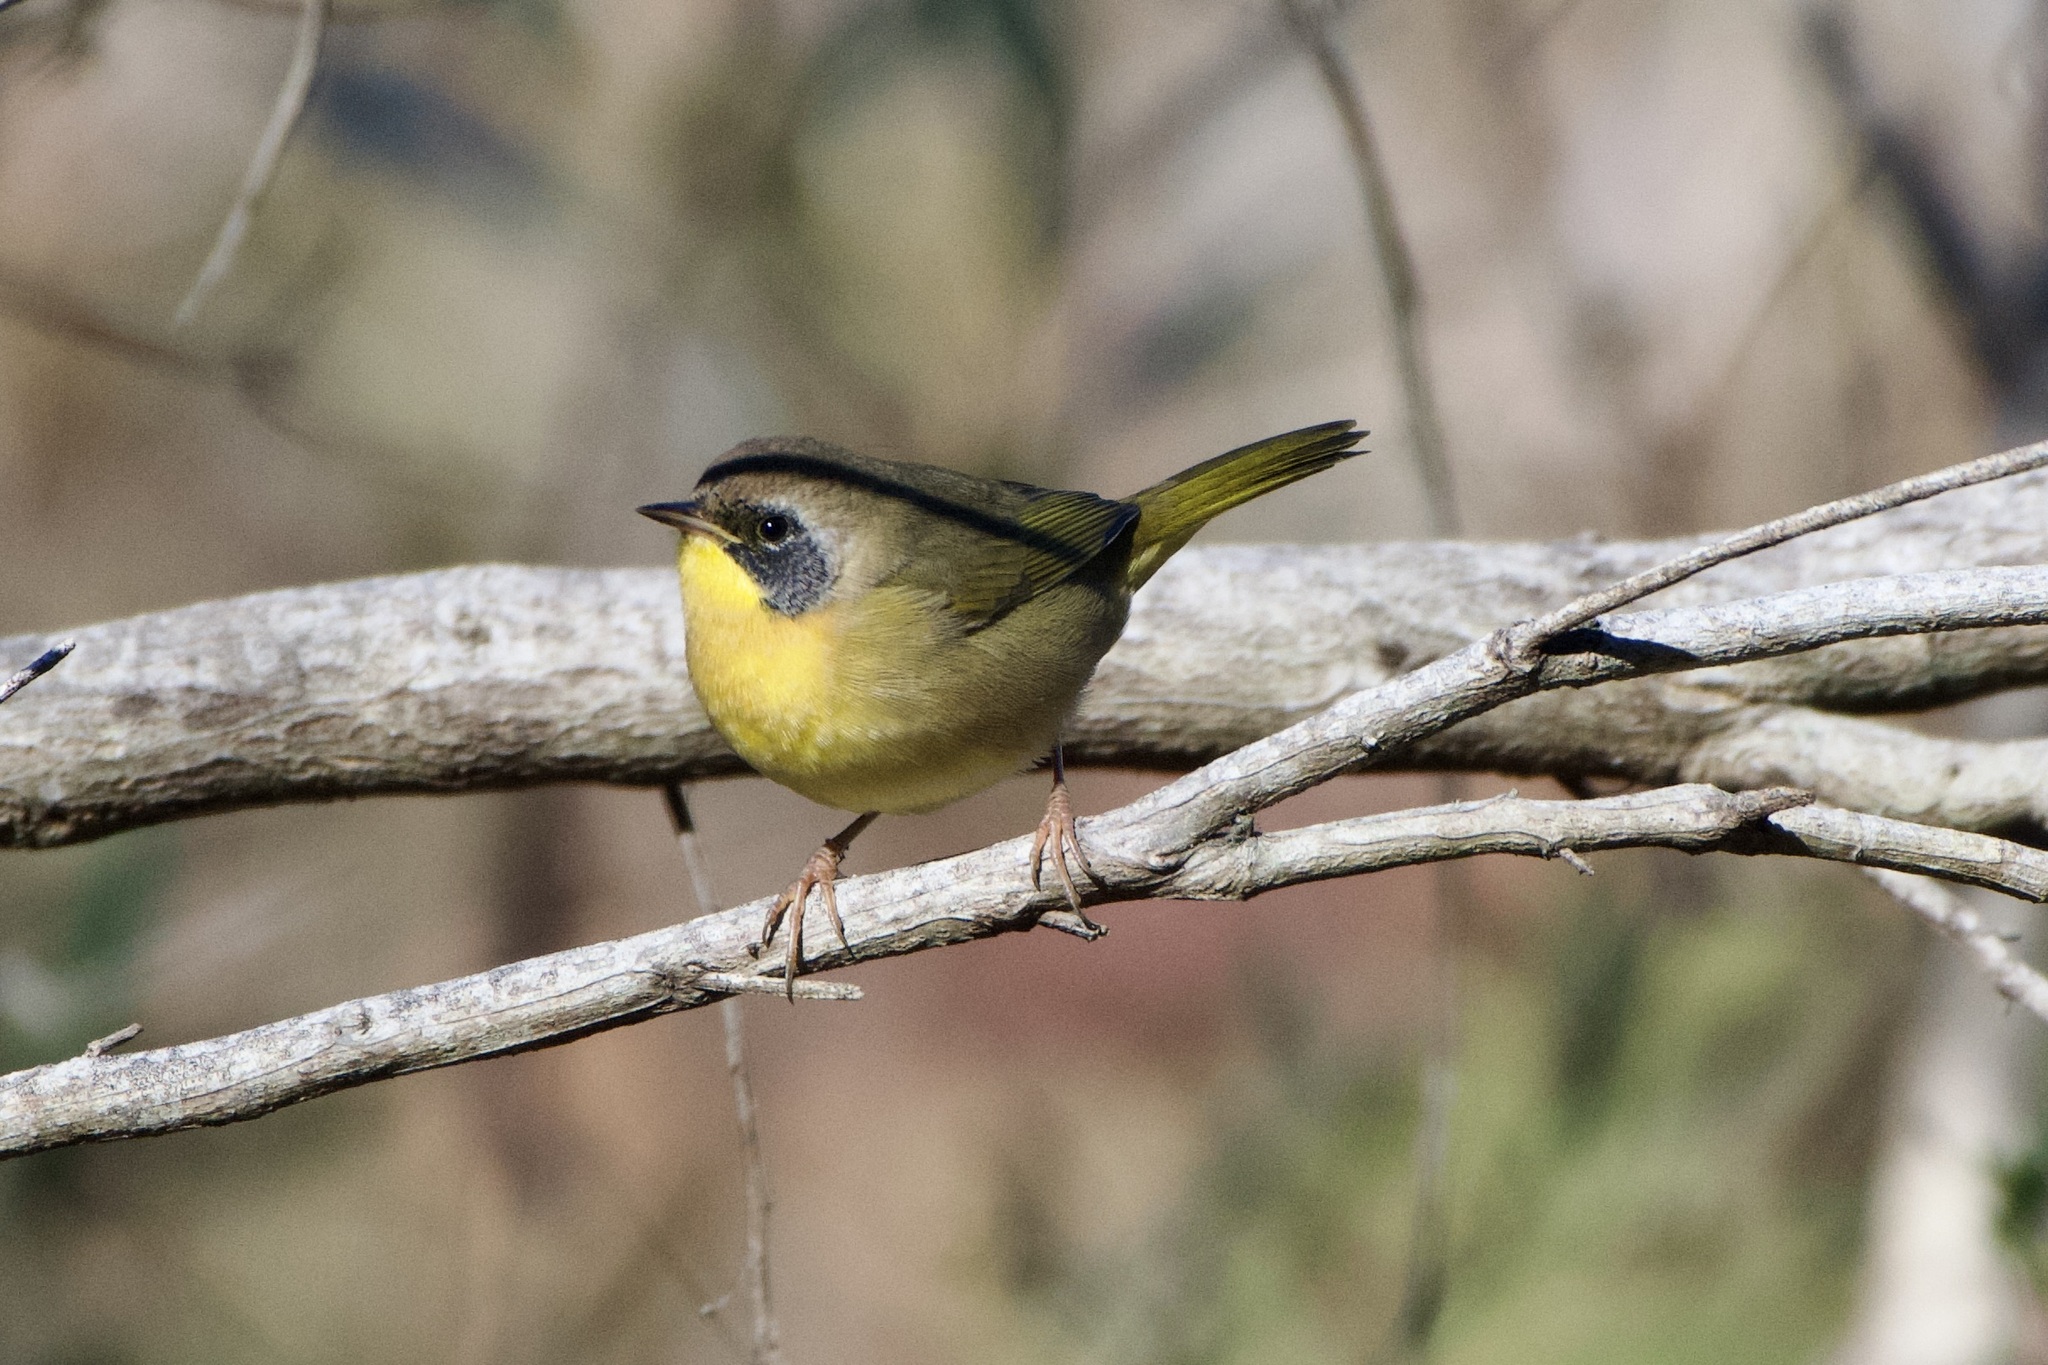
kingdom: Animalia
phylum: Chordata
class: Aves
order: Passeriformes
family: Parulidae
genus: Geothlypis
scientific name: Geothlypis trichas
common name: Common yellowthroat
